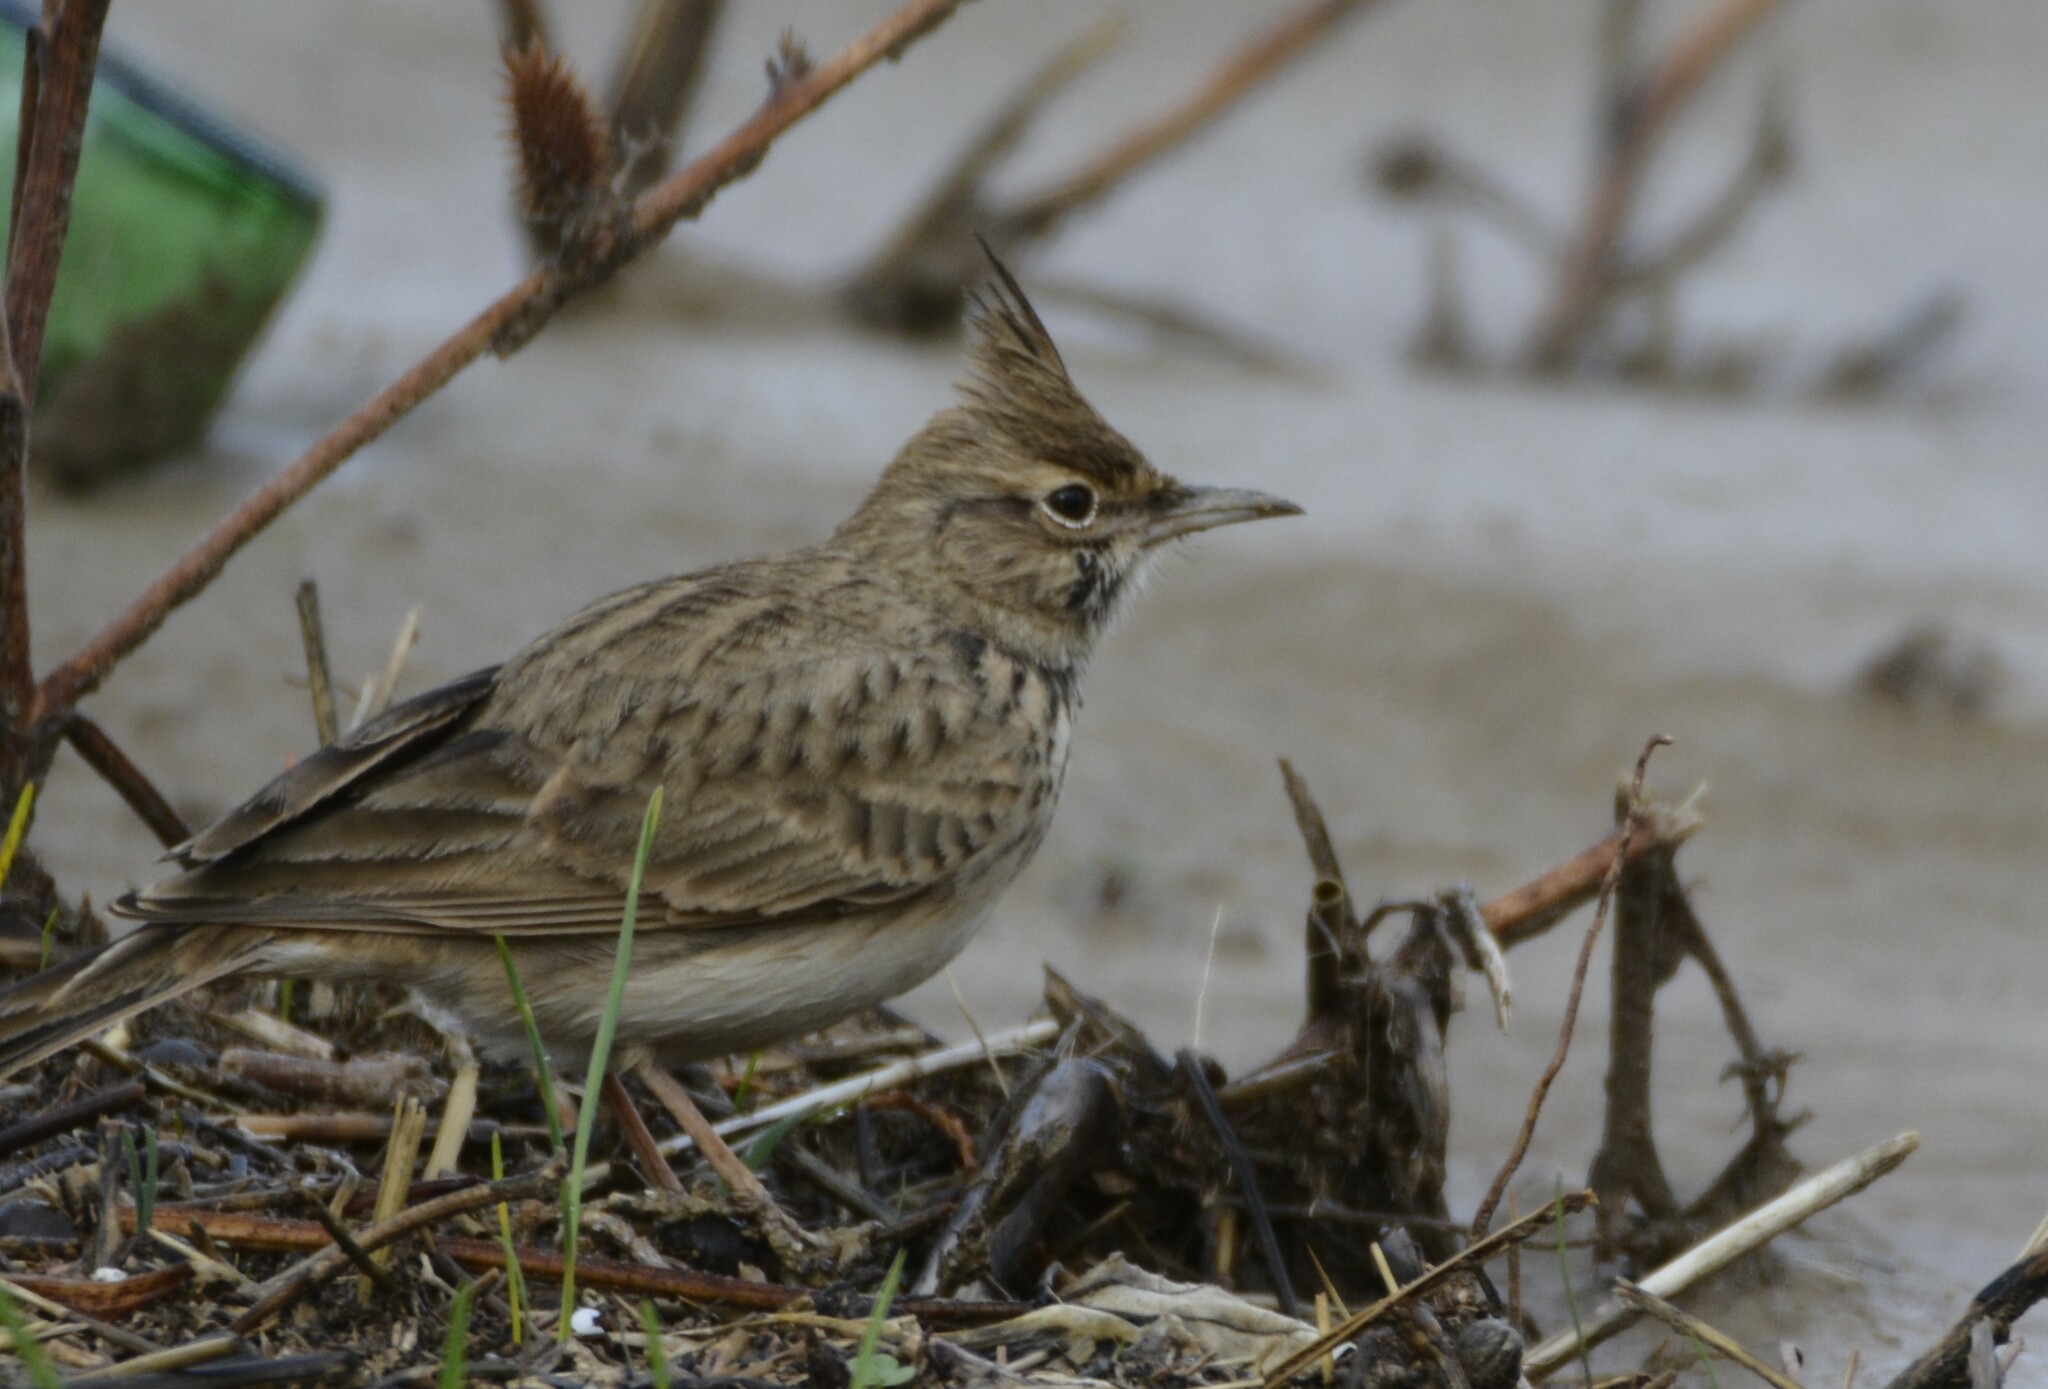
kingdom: Animalia
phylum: Chordata
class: Aves
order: Passeriformes
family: Alaudidae
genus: Galerida
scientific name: Galerida cristata
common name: Crested lark
